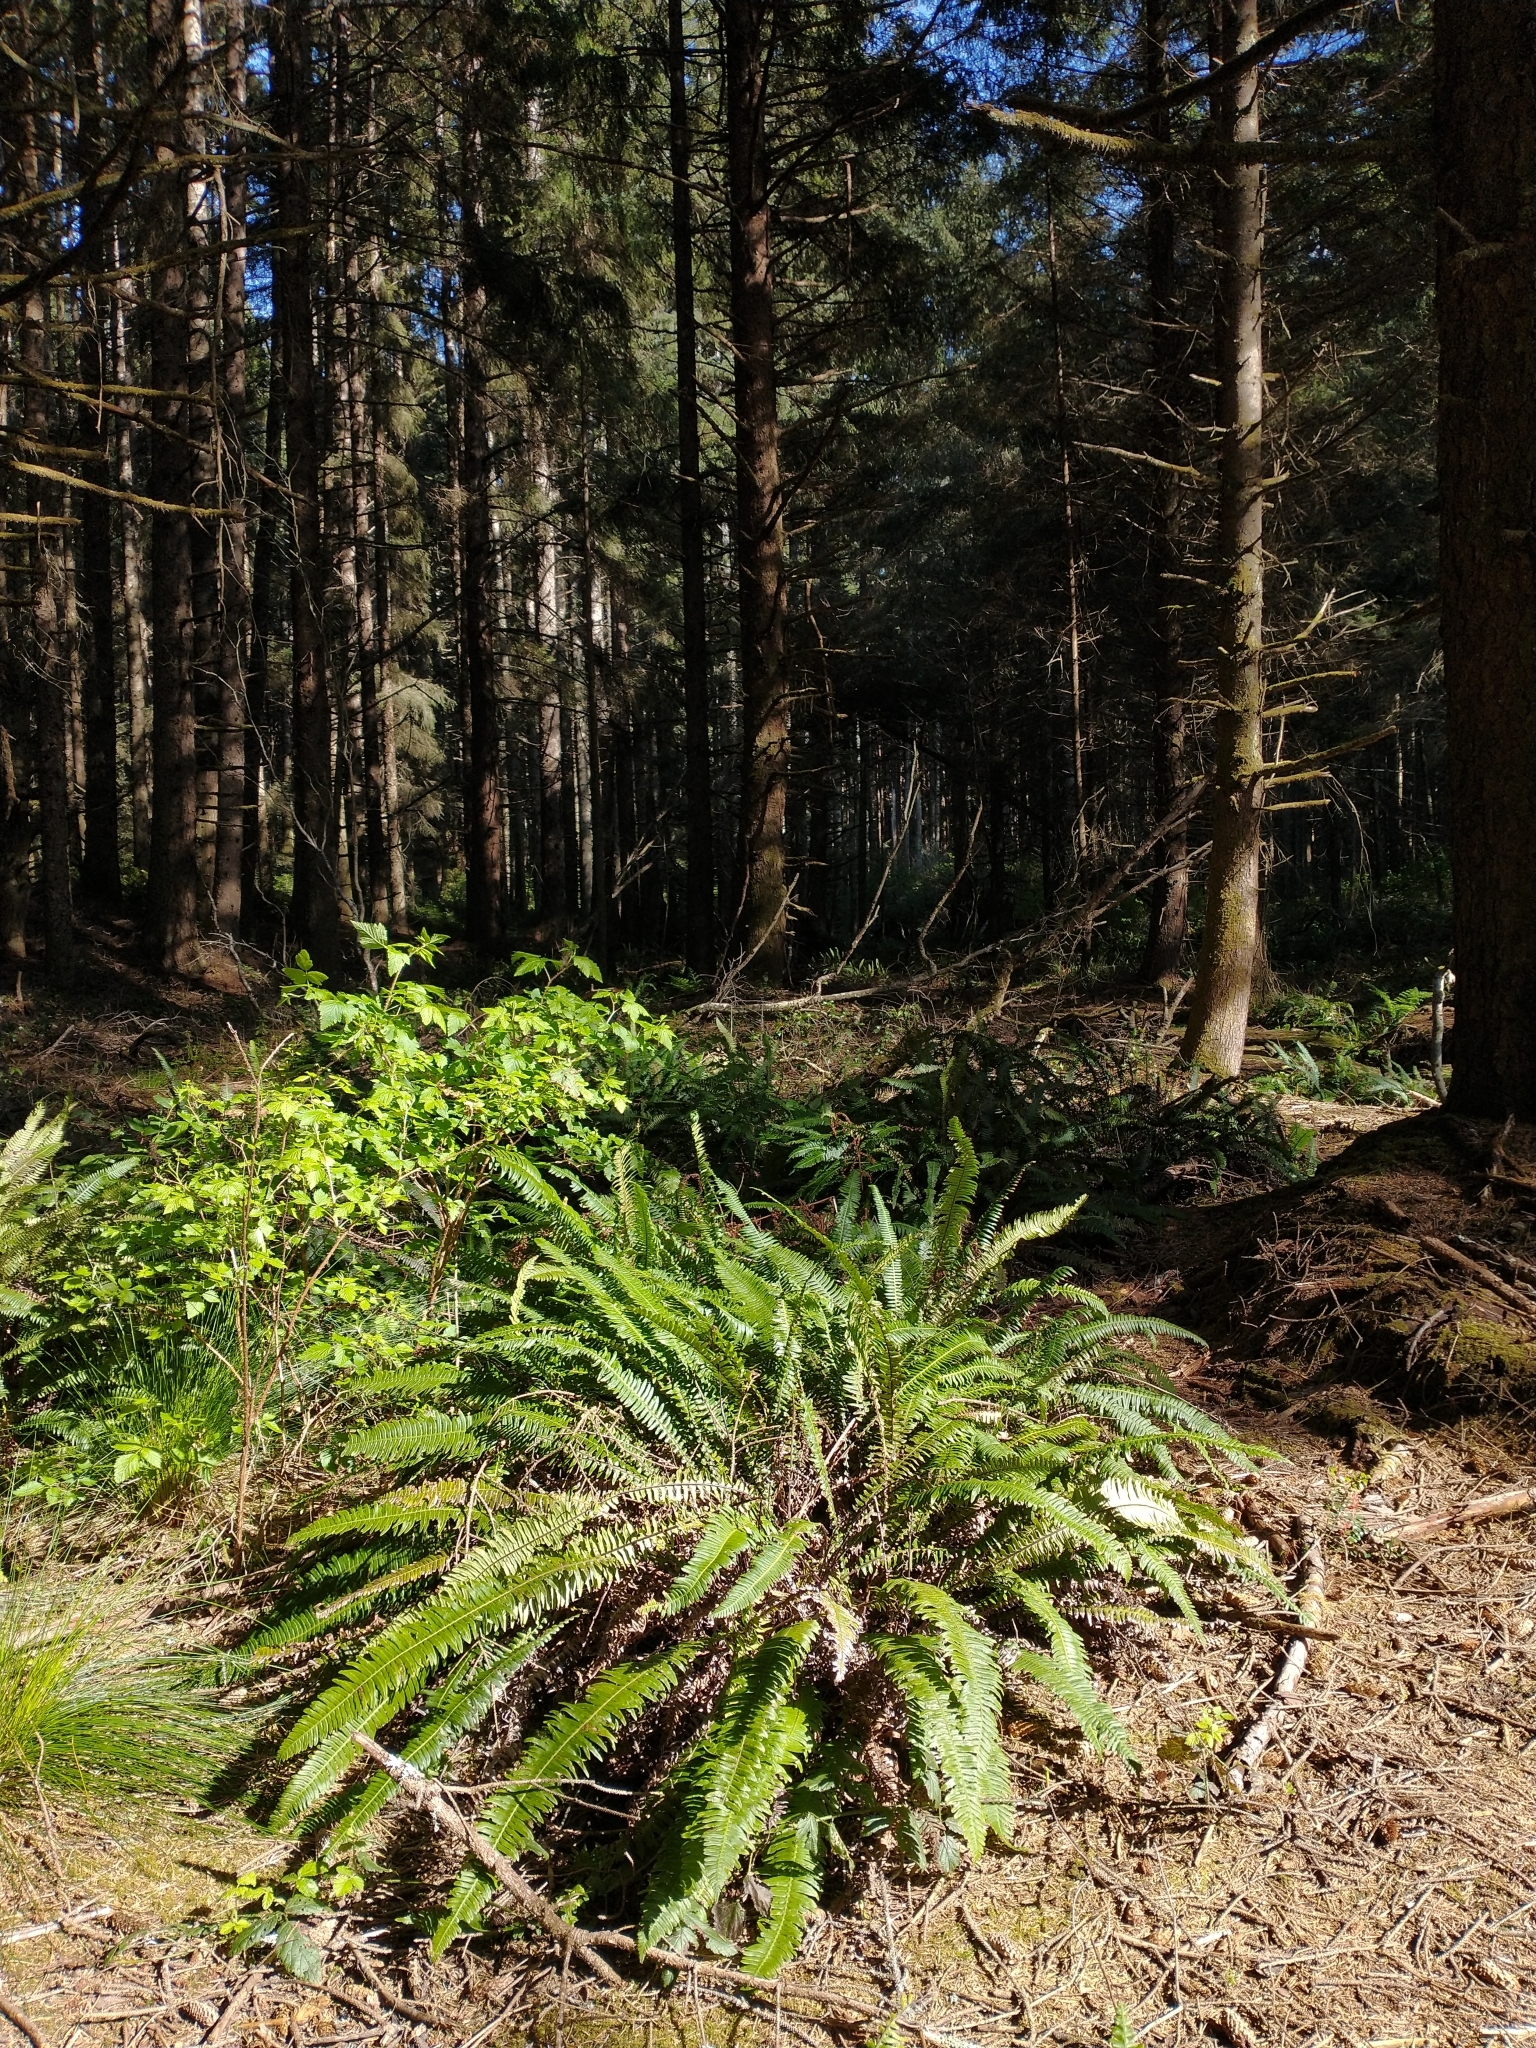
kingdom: Plantae
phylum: Tracheophyta
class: Polypodiopsida
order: Polypodiales
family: Blechnaceae
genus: Struthiopteris
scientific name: Struthiopteris spicant
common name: Deer fern
